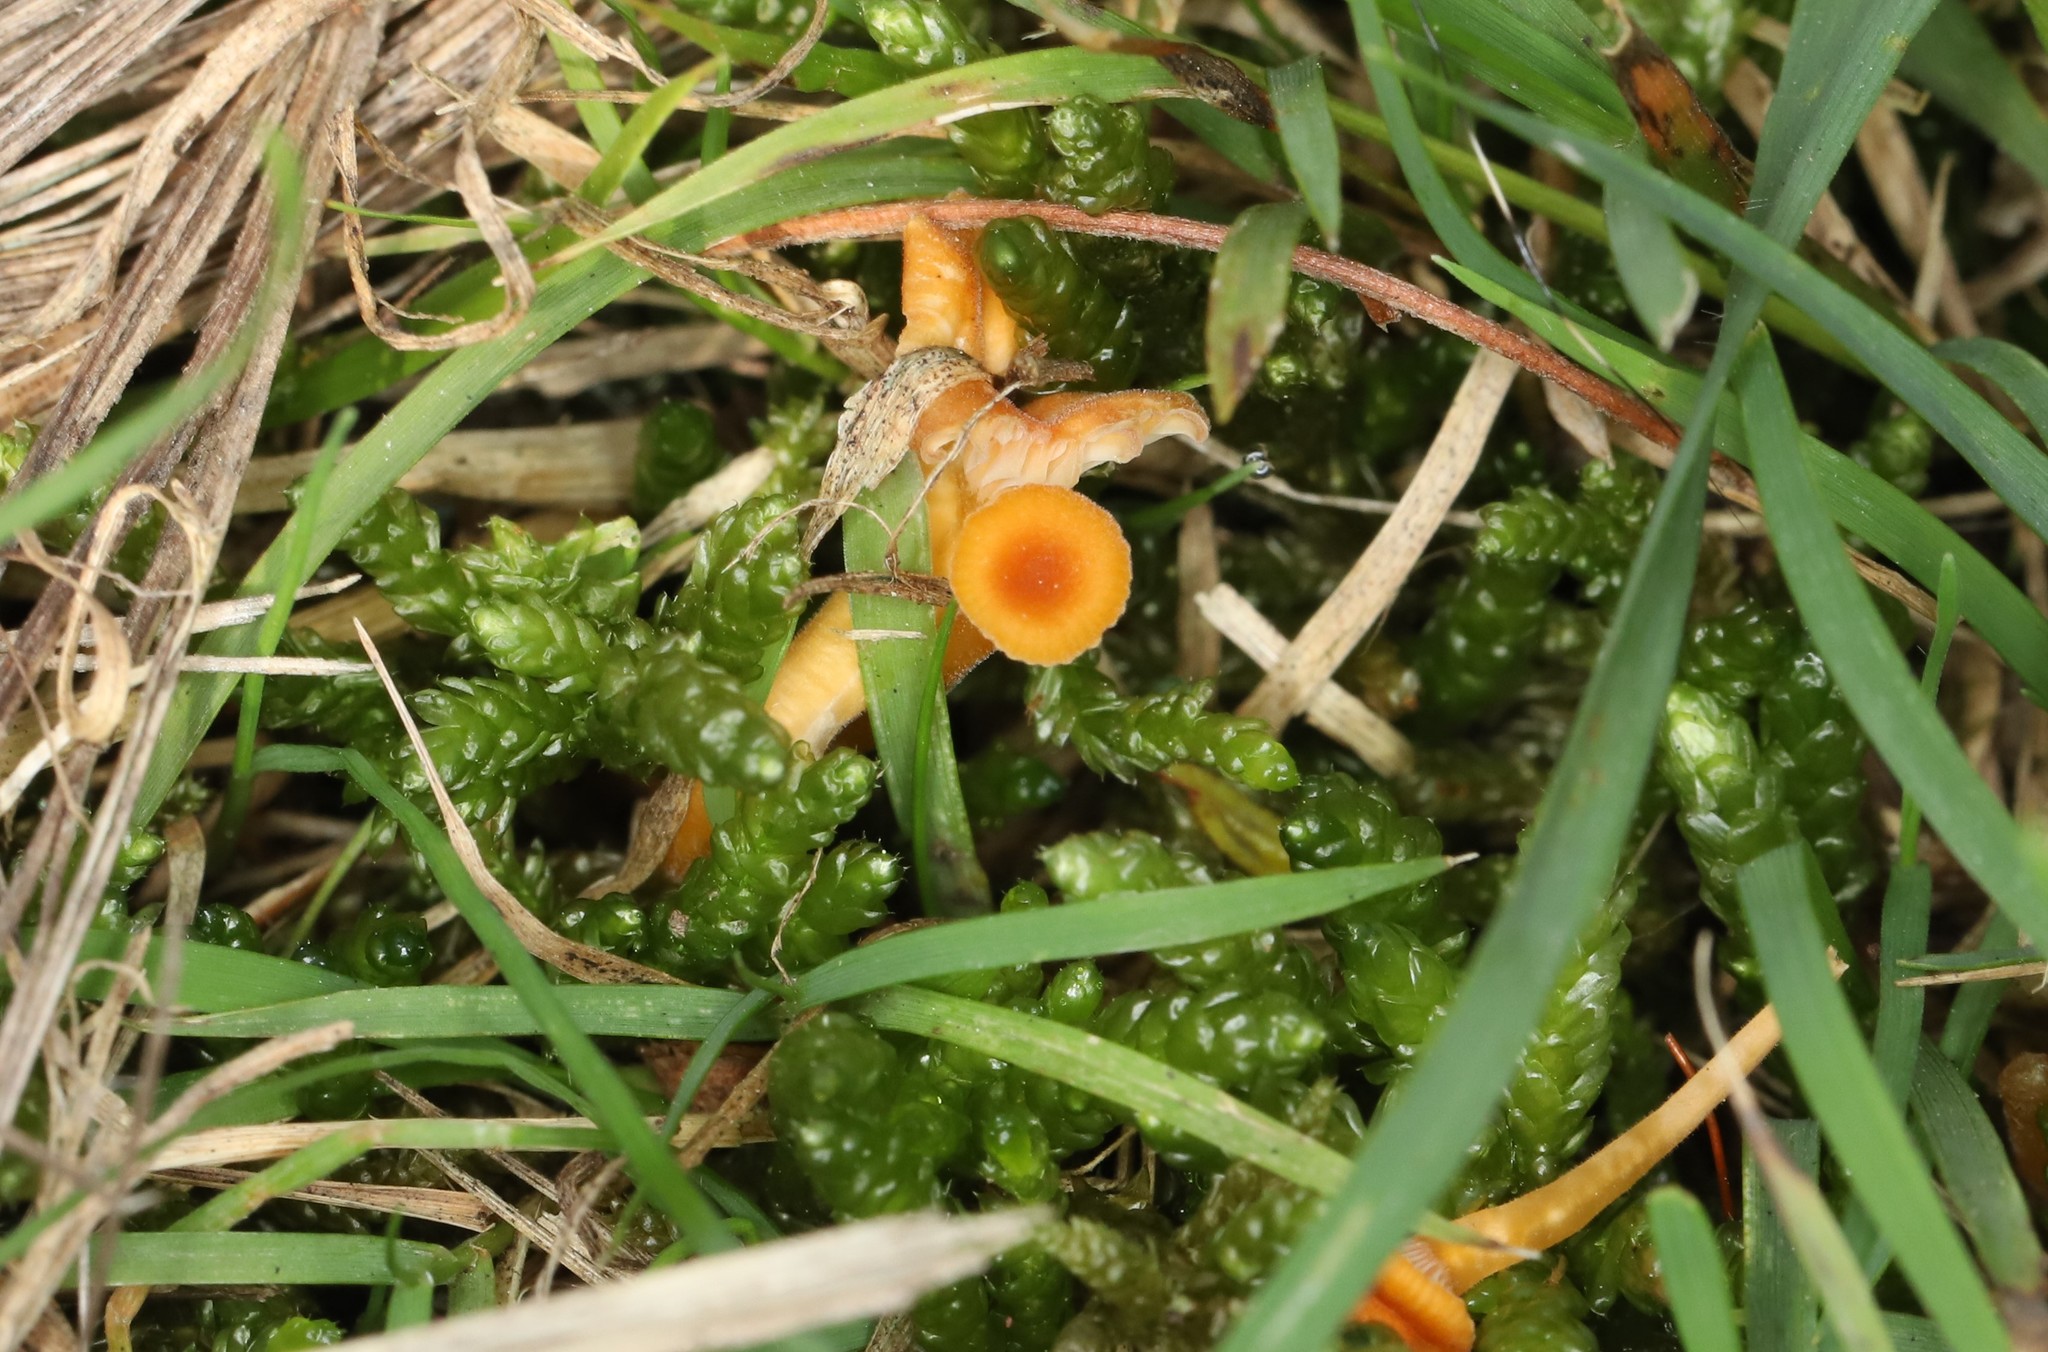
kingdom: Fungi
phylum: Basidiomycota
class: Agaricomycetes
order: Hymenochaetales
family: Rickenellaceae
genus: Rickenella
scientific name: Rickenella fibula
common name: Orange mosscap
